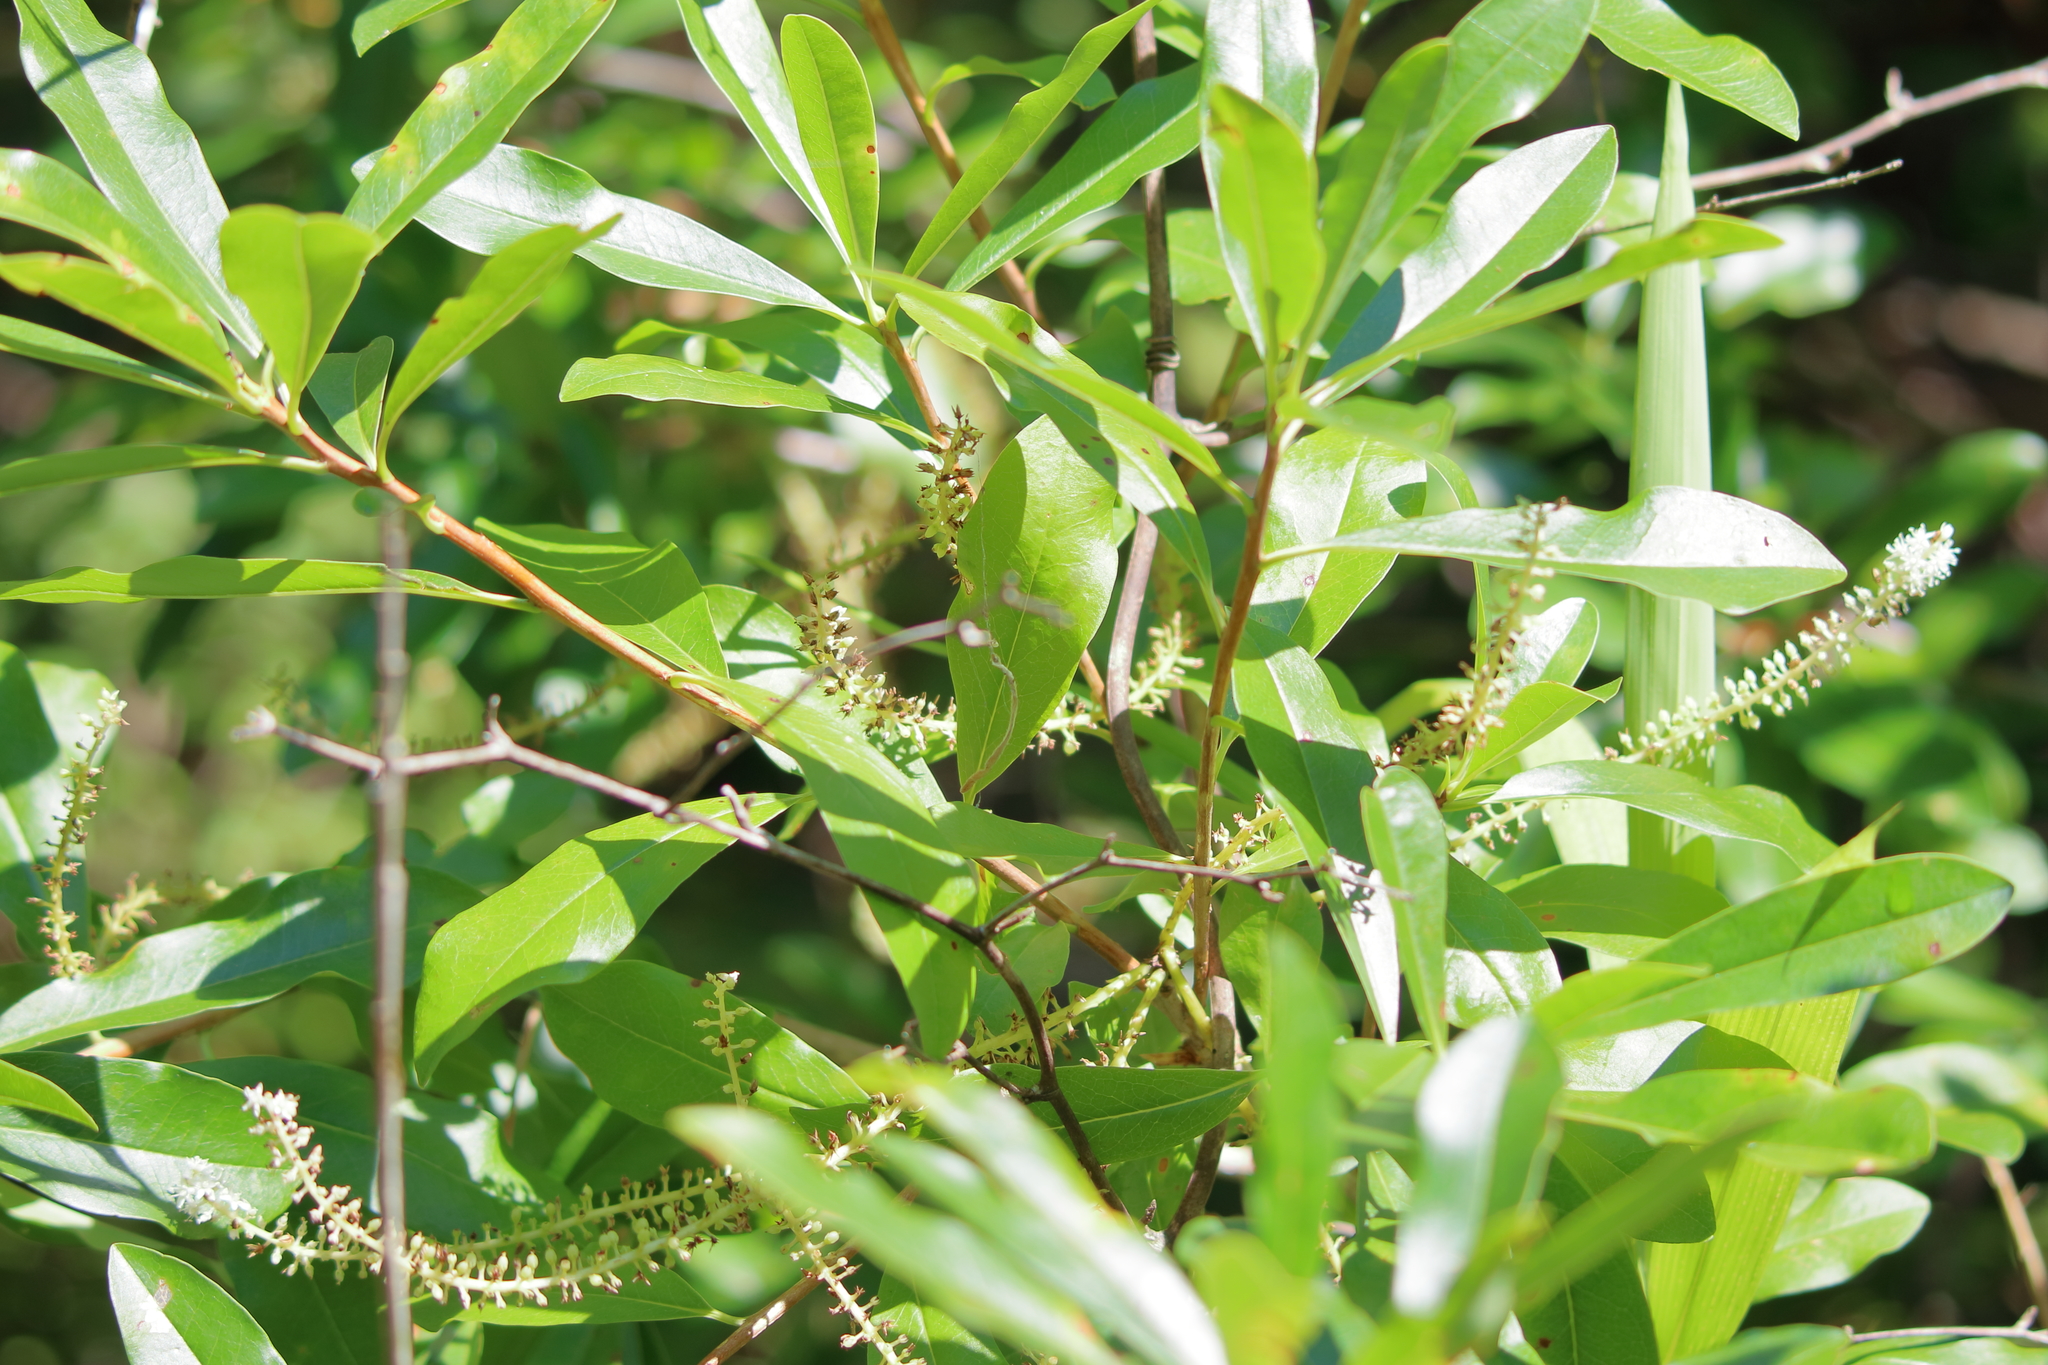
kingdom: Plantae
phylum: Tracheophyta
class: Magnoliopsida
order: Ericales
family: Cyrillaceae
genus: Cyrilla
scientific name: Cyrilla racemiflora
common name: Black titi
